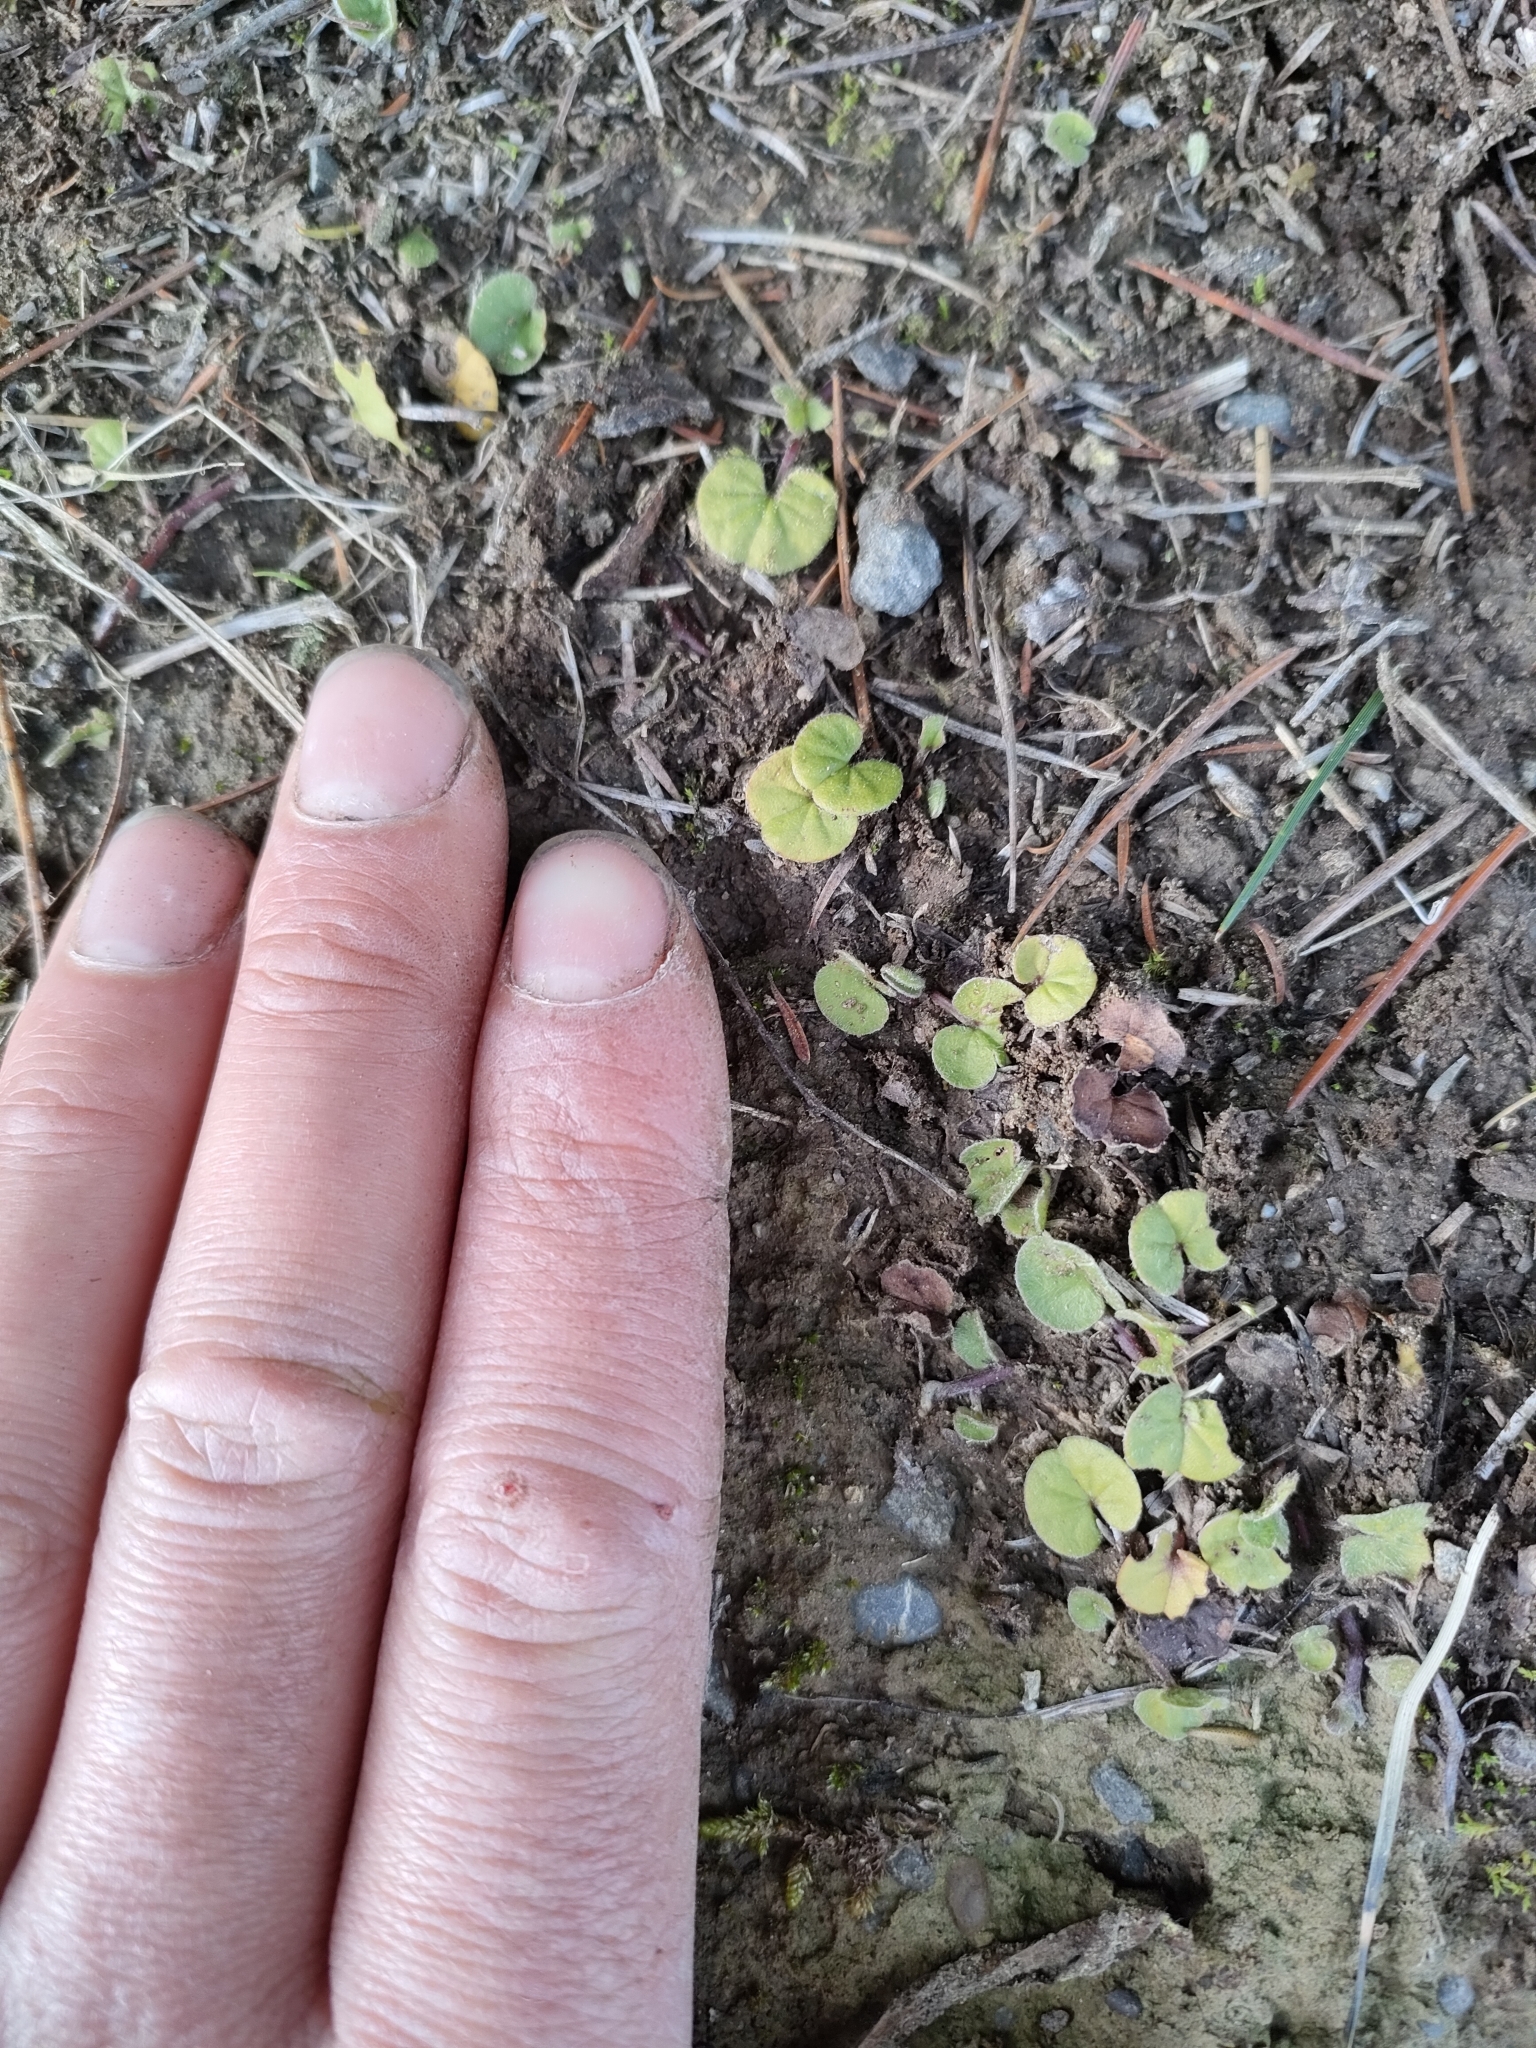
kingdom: Plantae
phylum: Tracheophyta
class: Magnoliopsida
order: Solanales
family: Convolvulaceae
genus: Dichondra
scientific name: Dichondra repens
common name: Kidneyweed
